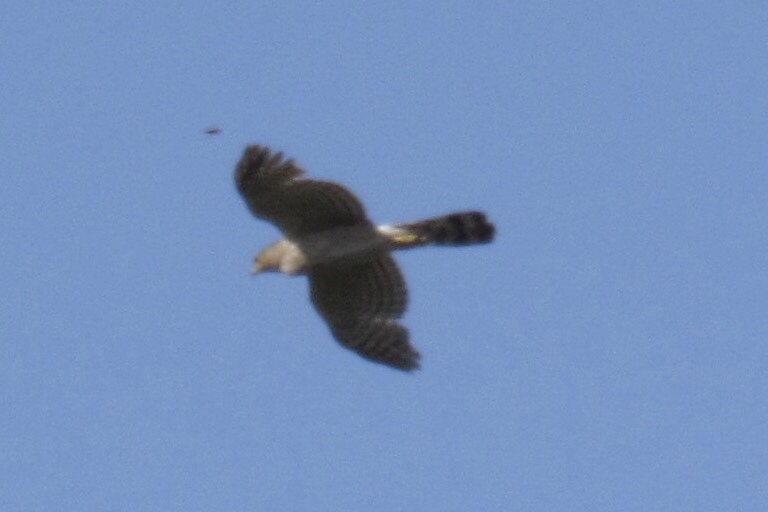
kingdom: Animalia
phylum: Chordata
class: Aves
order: Accipitriformes
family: Accipitridae
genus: Accipiter
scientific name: Accipiter cooperii
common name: Cooper's hawk
